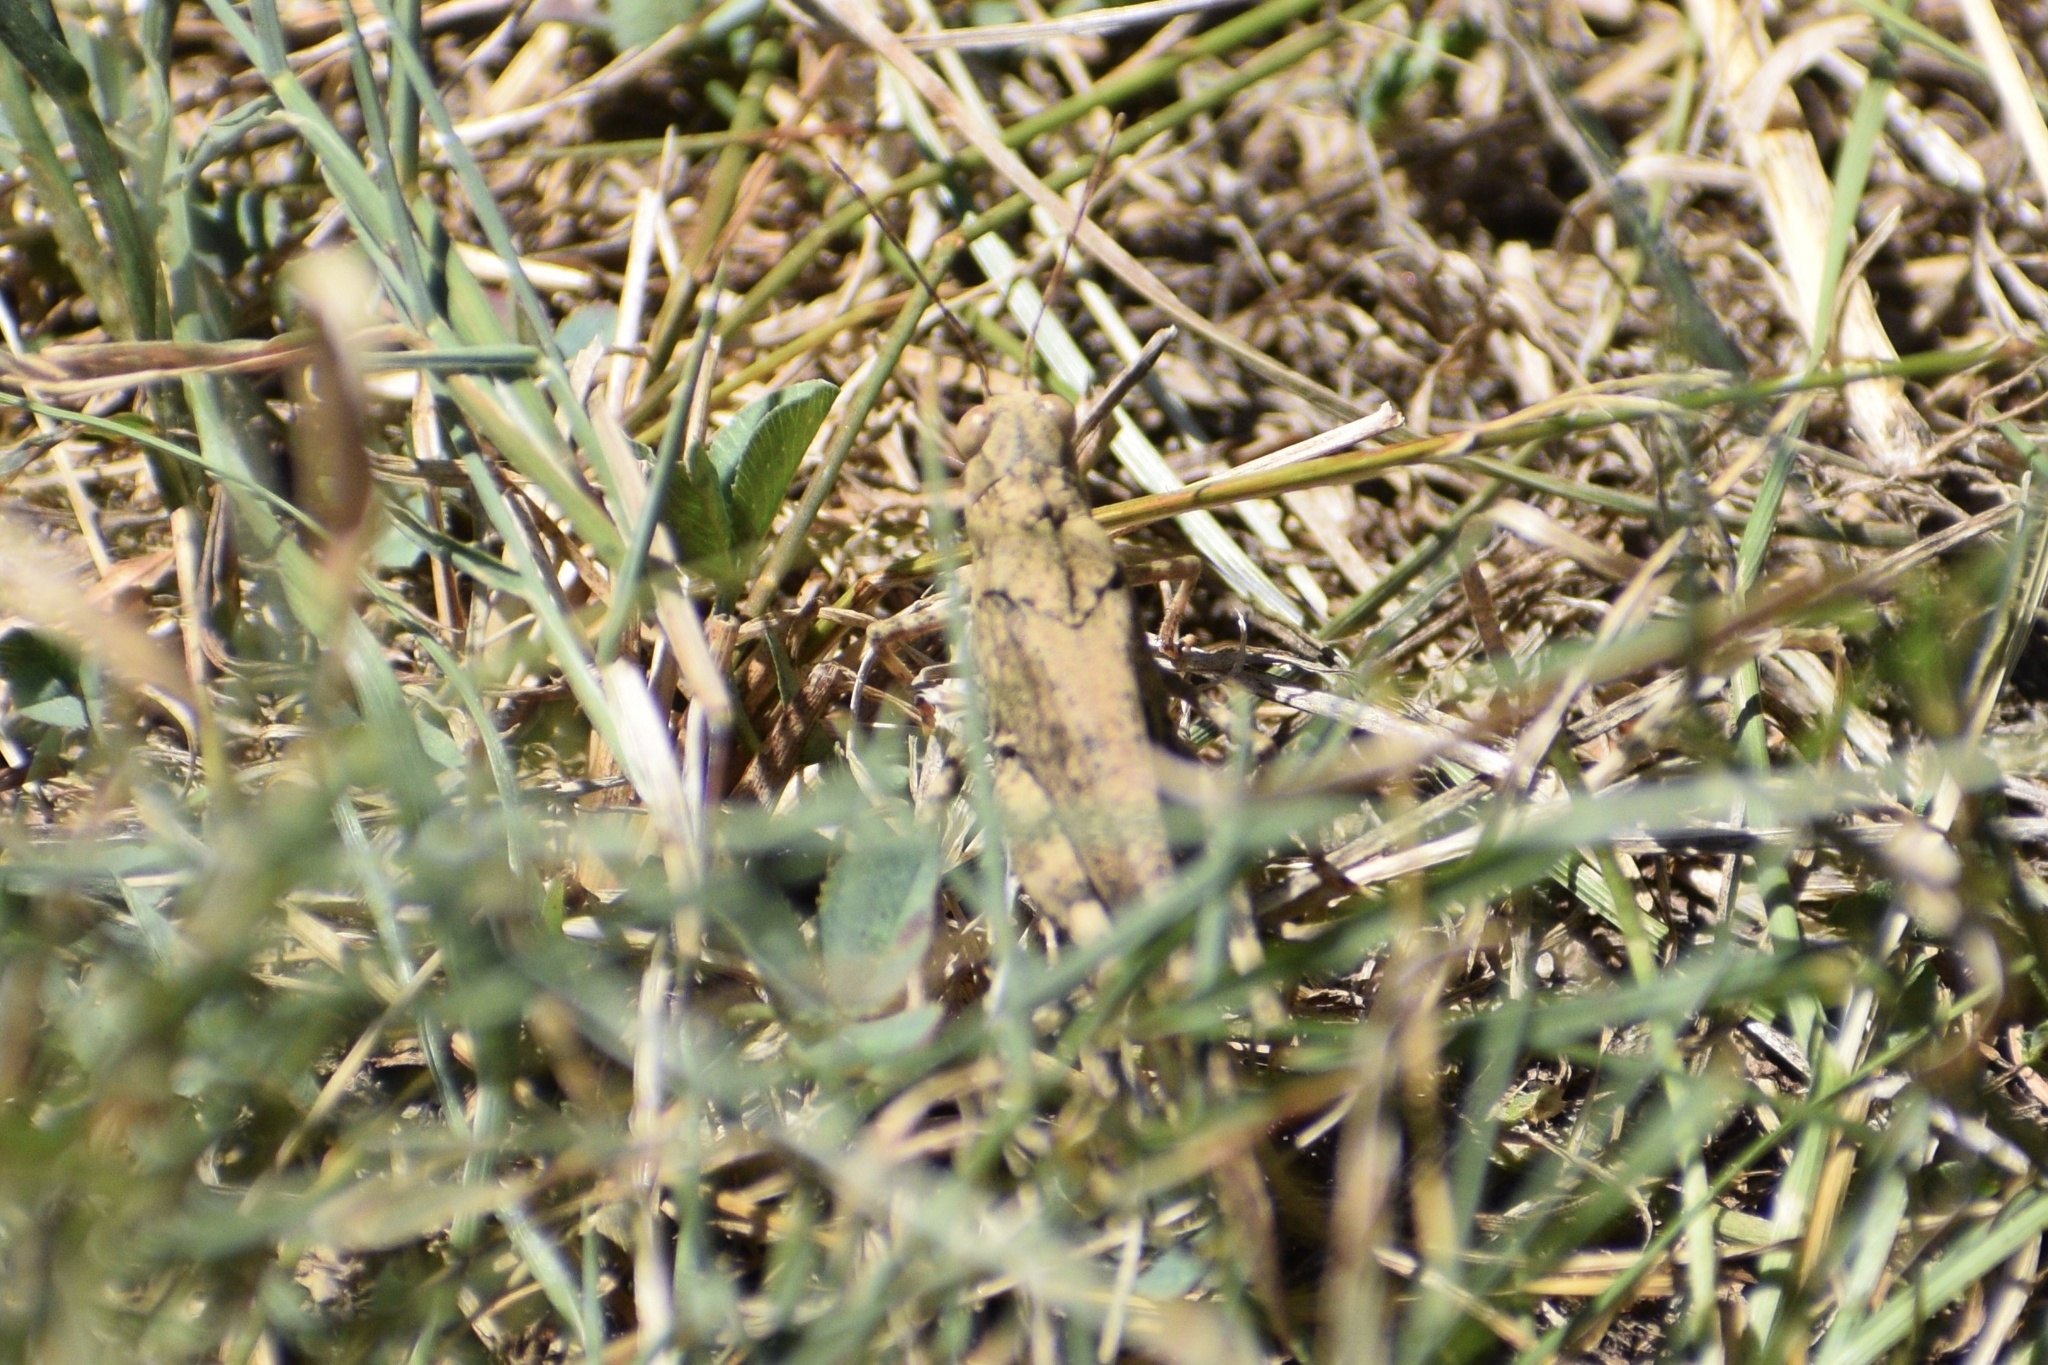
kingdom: Animalia
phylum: Arthropoda
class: Insecta
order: Orthoptera
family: Acrididae
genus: Dissosteira
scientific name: Dissosteira carolina
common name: Carolina grasshopper
